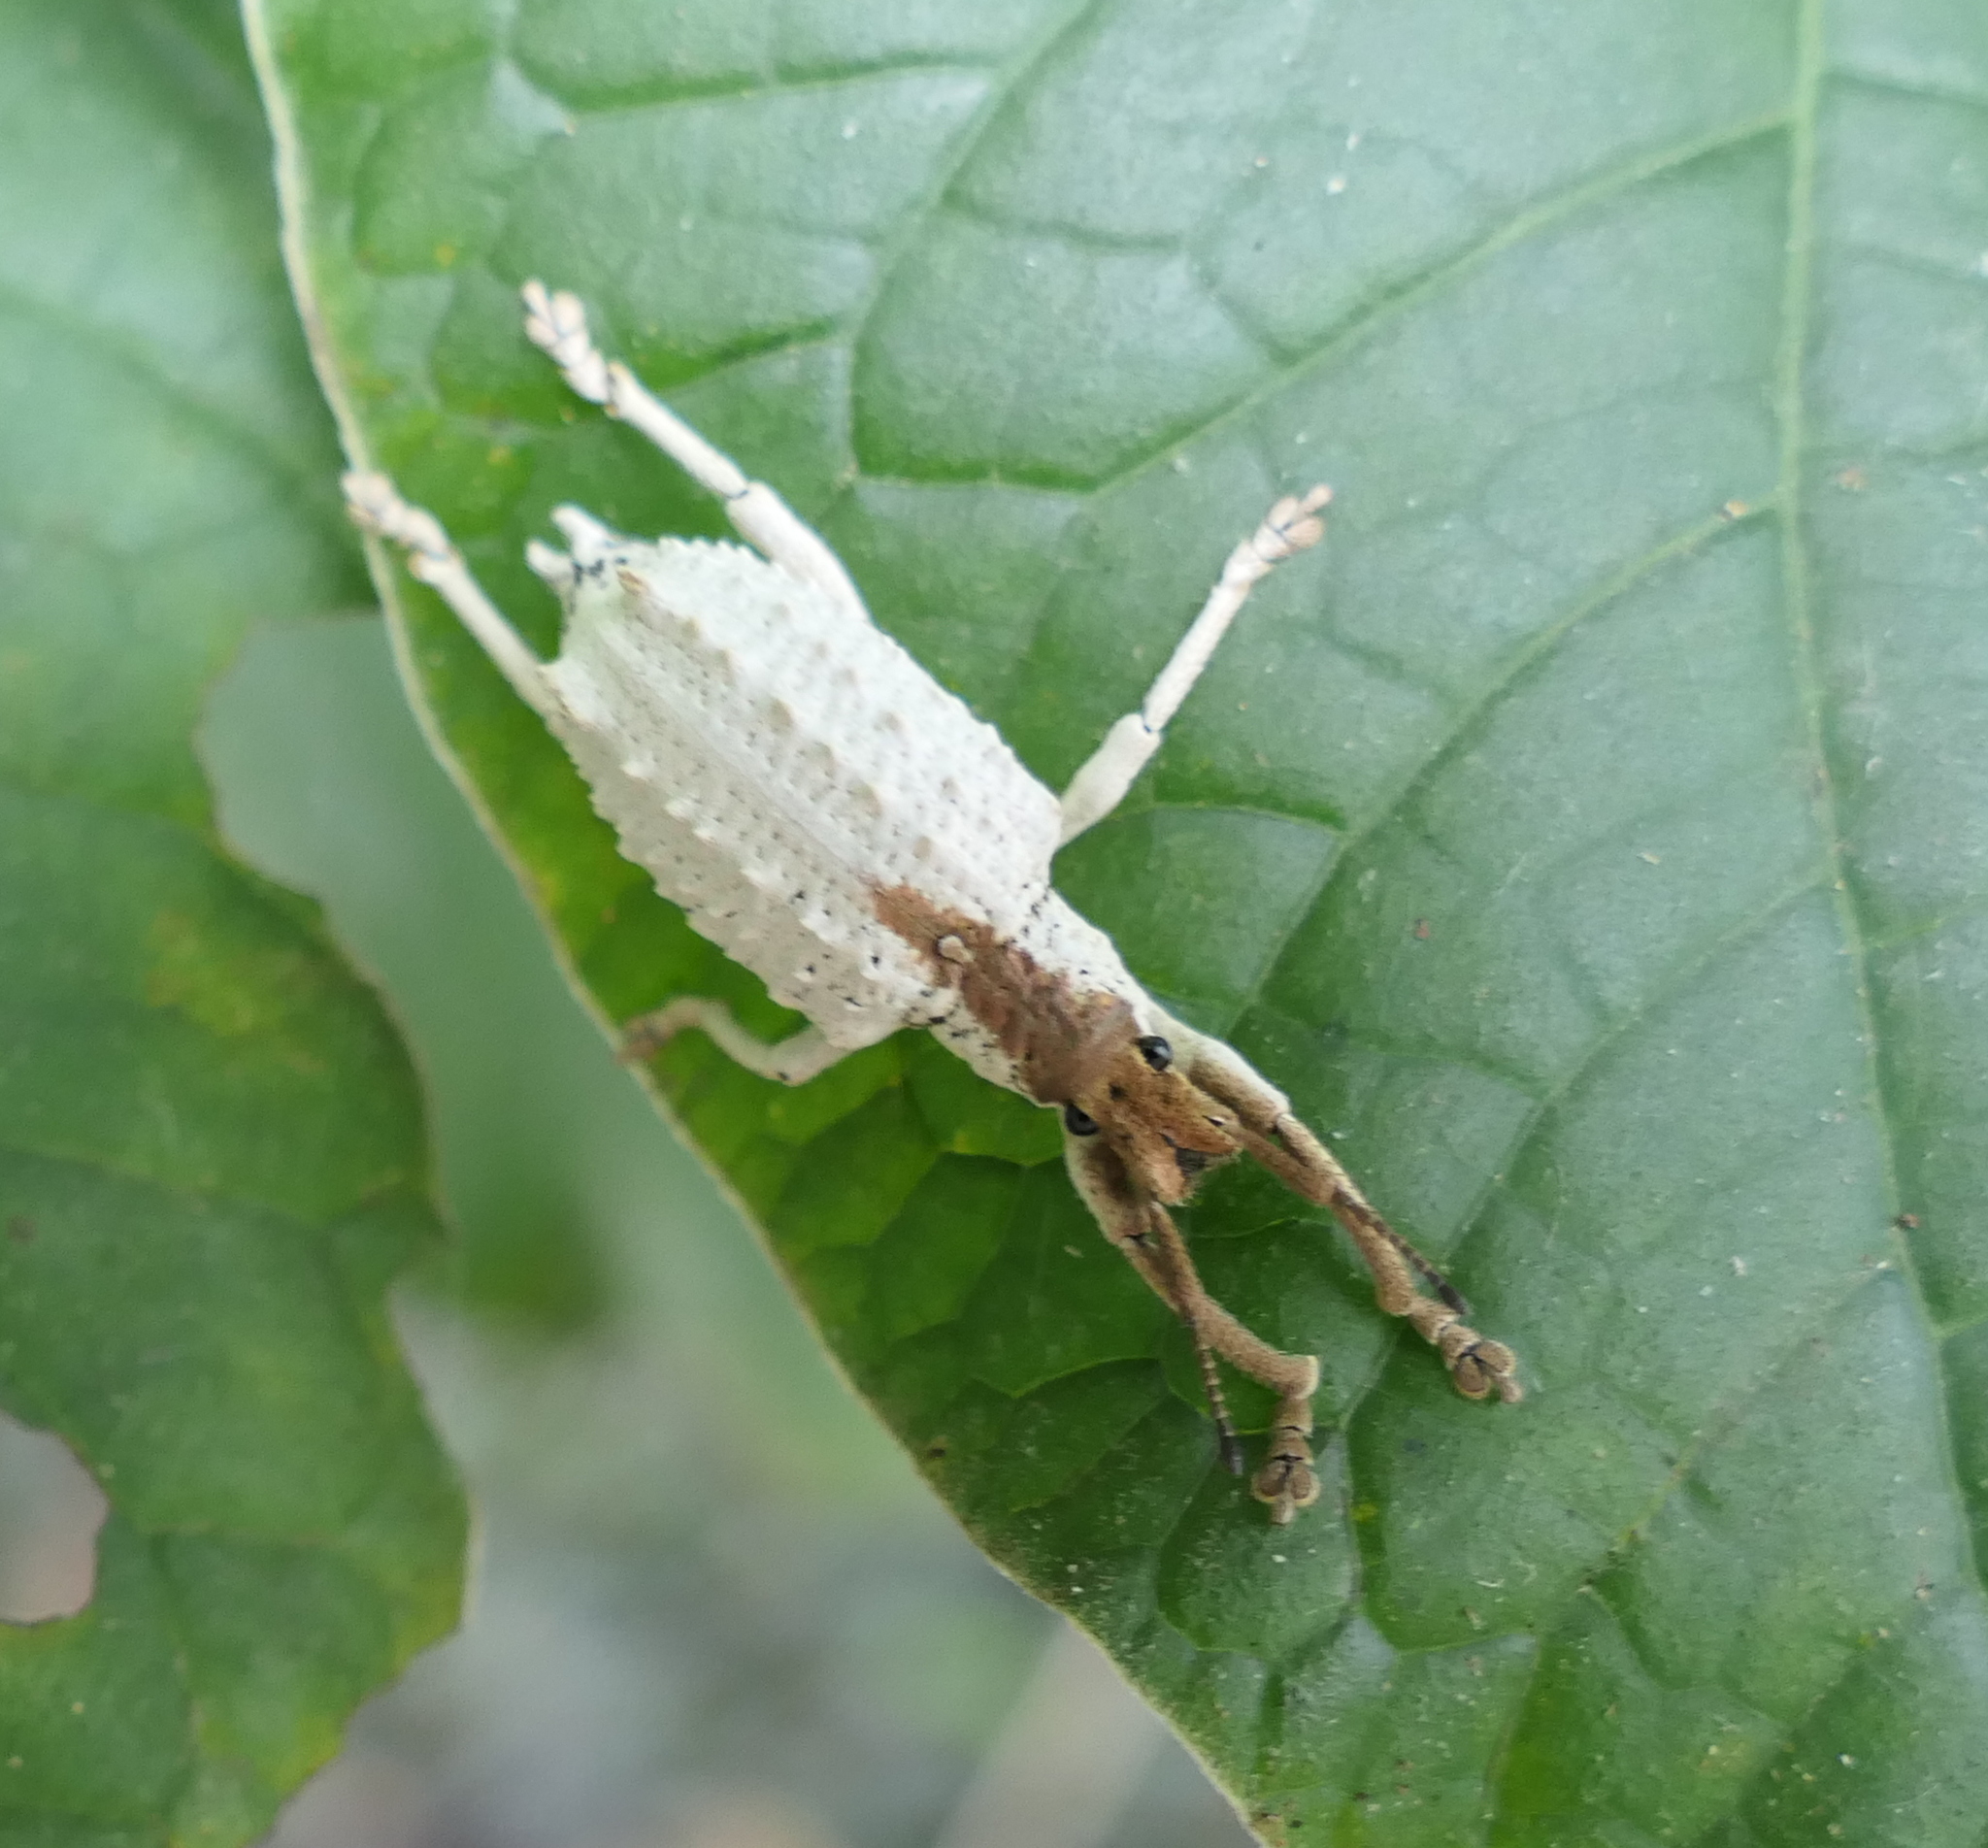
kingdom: Animalia
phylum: Arthropoda
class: Insecta
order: Coleoptera
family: Curculionidae
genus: Compsus
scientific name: Compsus niveus
